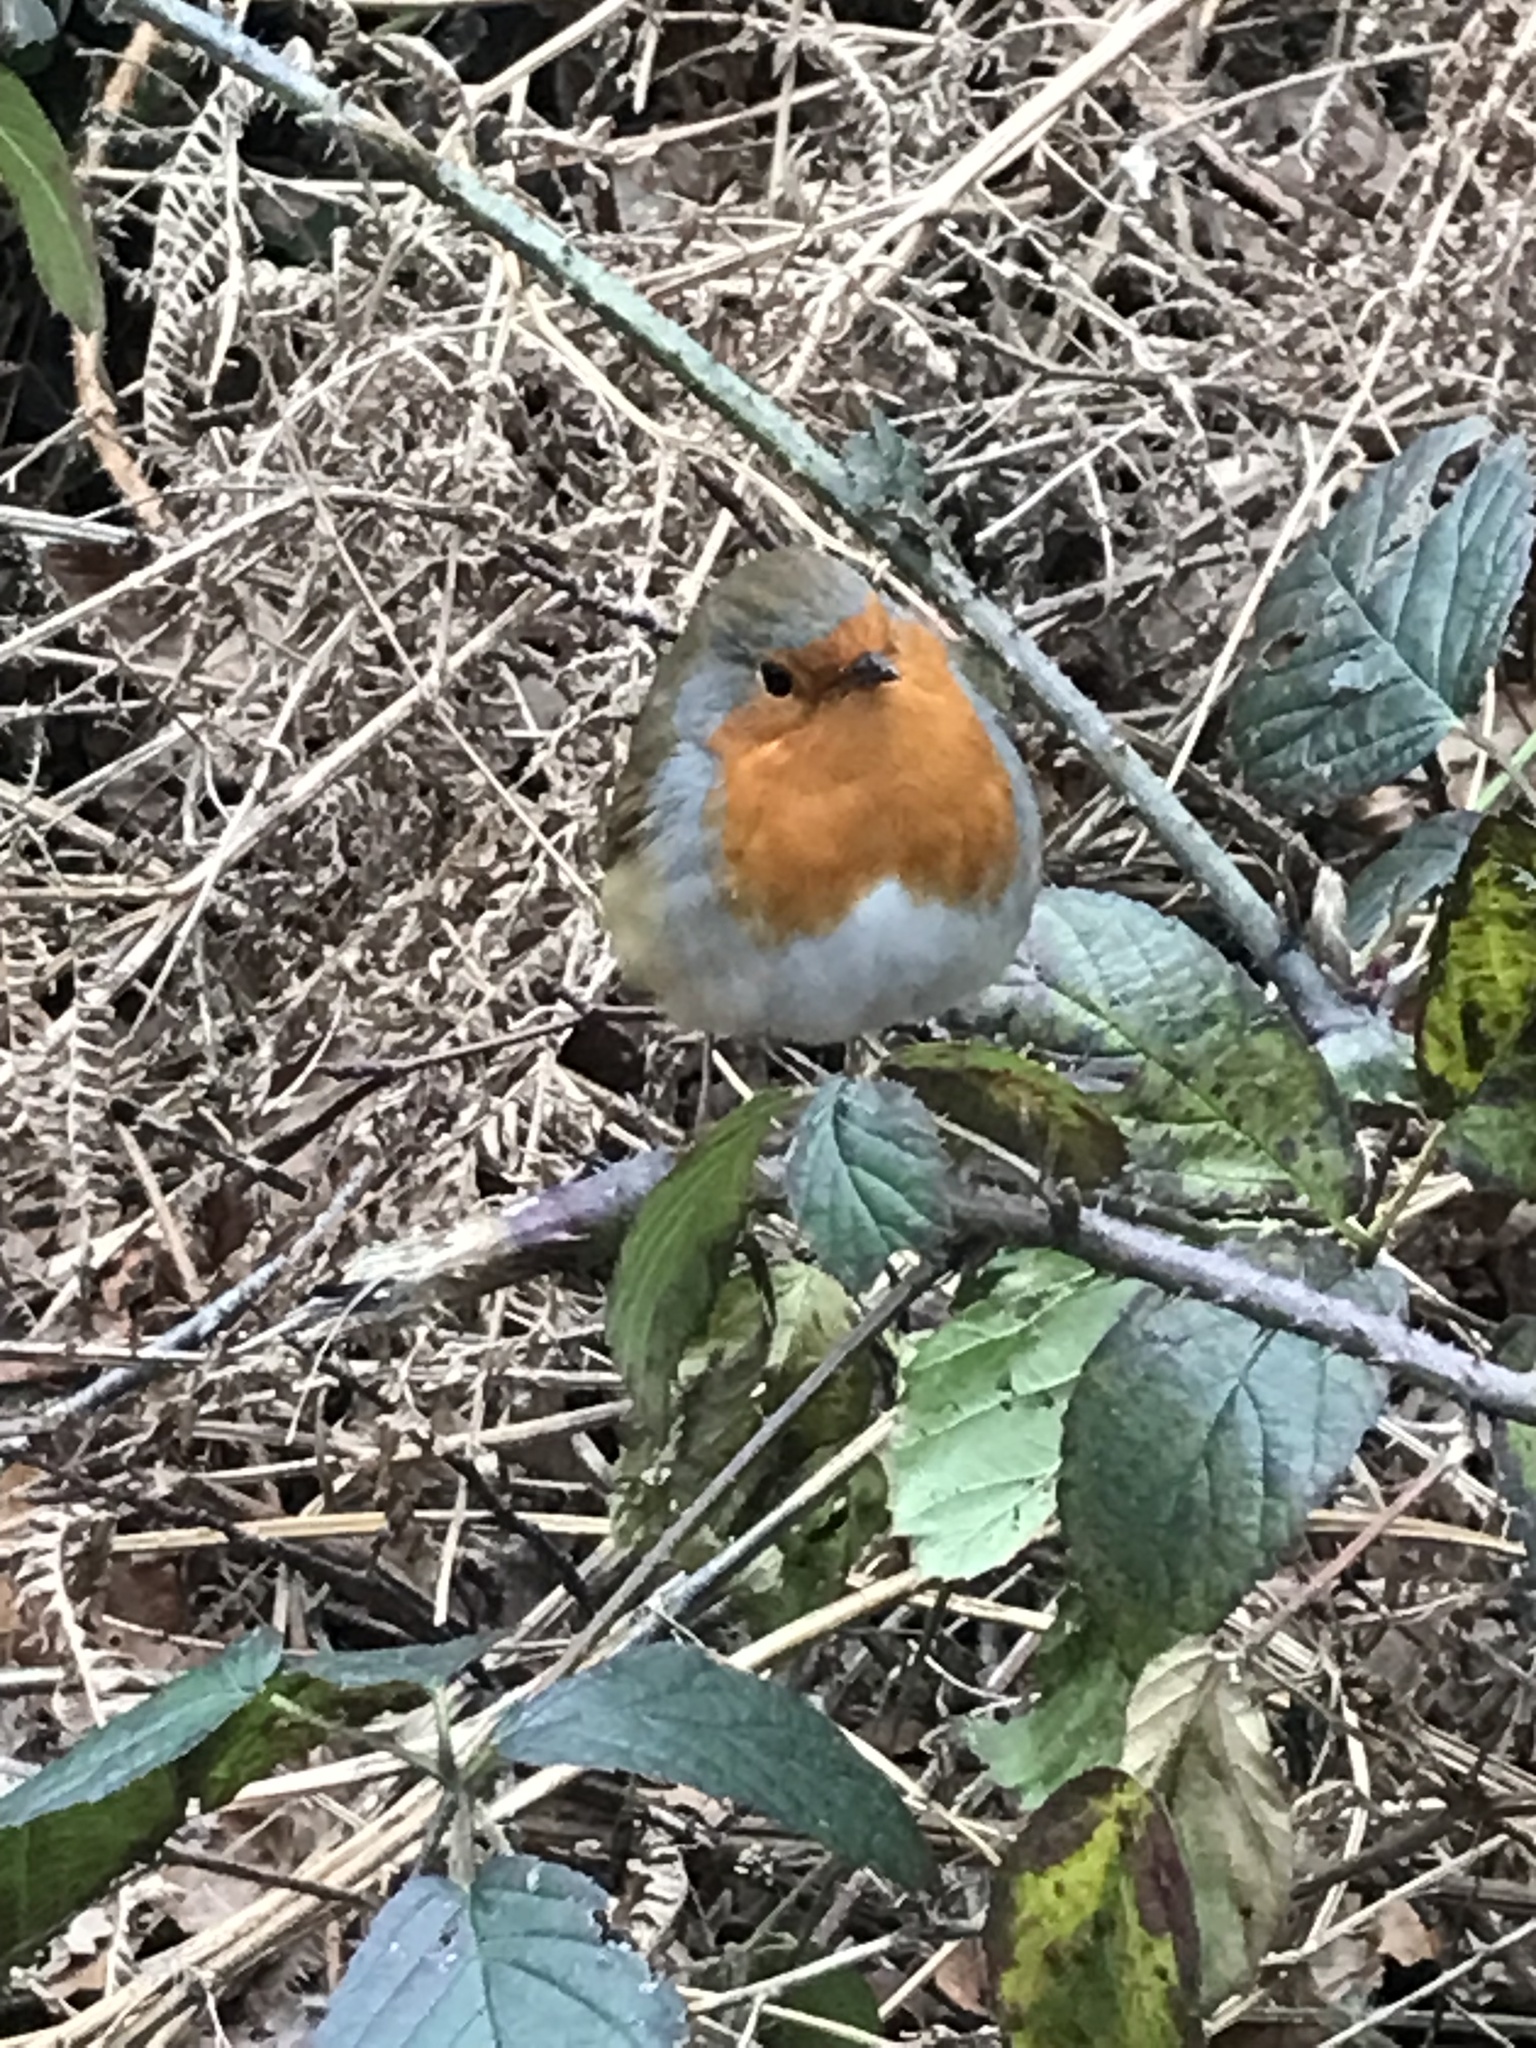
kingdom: Animalia
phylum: Chordata
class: Aves
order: Passeriformes
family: Muscicapidae
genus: Erithacus
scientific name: Erithacus rubecula
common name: European robin
